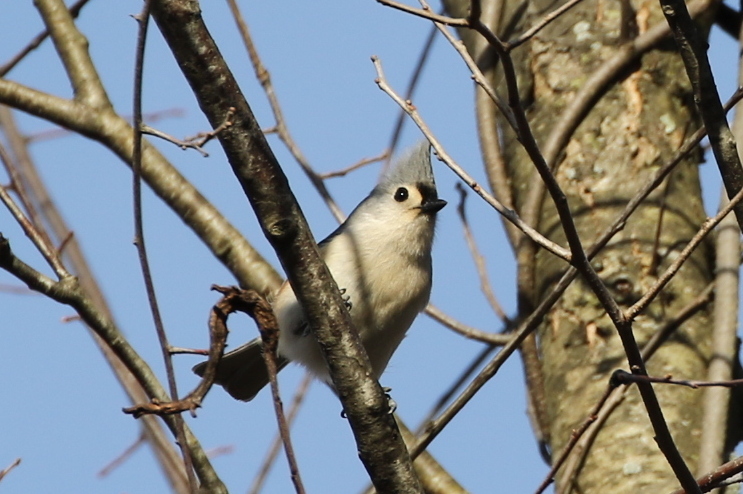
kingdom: Animalia
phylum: Chordata
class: Aves
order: Passeriformes
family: Paridae
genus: Baeolophus
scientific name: Baeolophus bicolor
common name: Tufted titmouse
